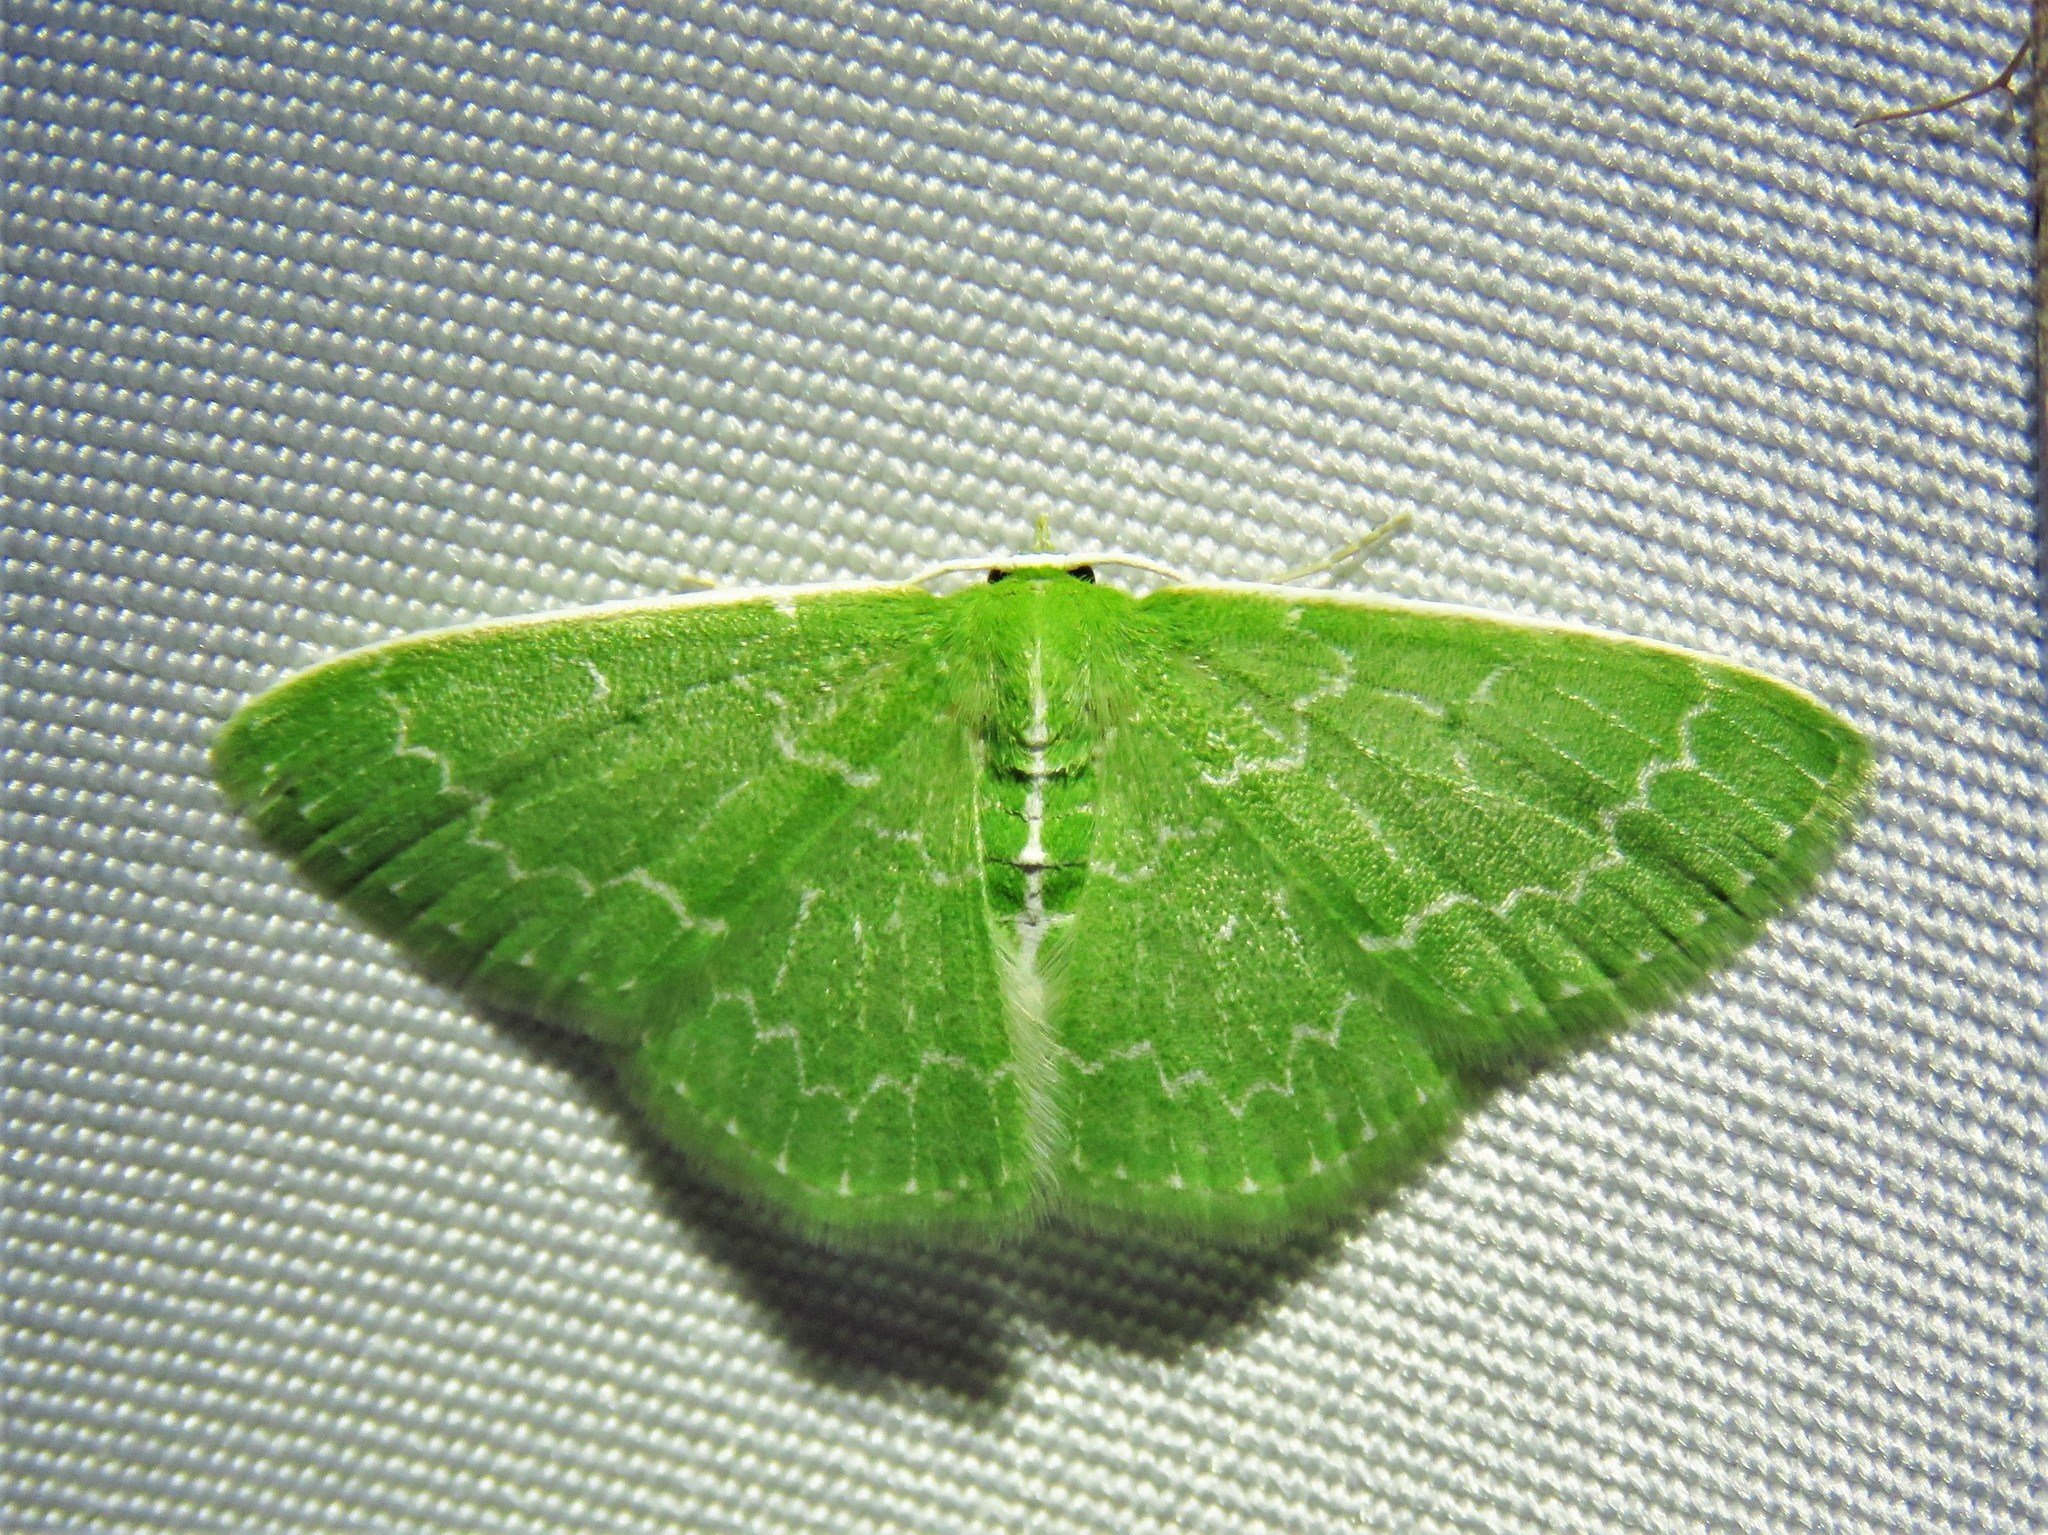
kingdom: Animalia
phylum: Arthropoda
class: Insecta
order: Lepidoptera
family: Geometridae
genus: Synchlora
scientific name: Synchlora frondaria
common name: Southern emerald
